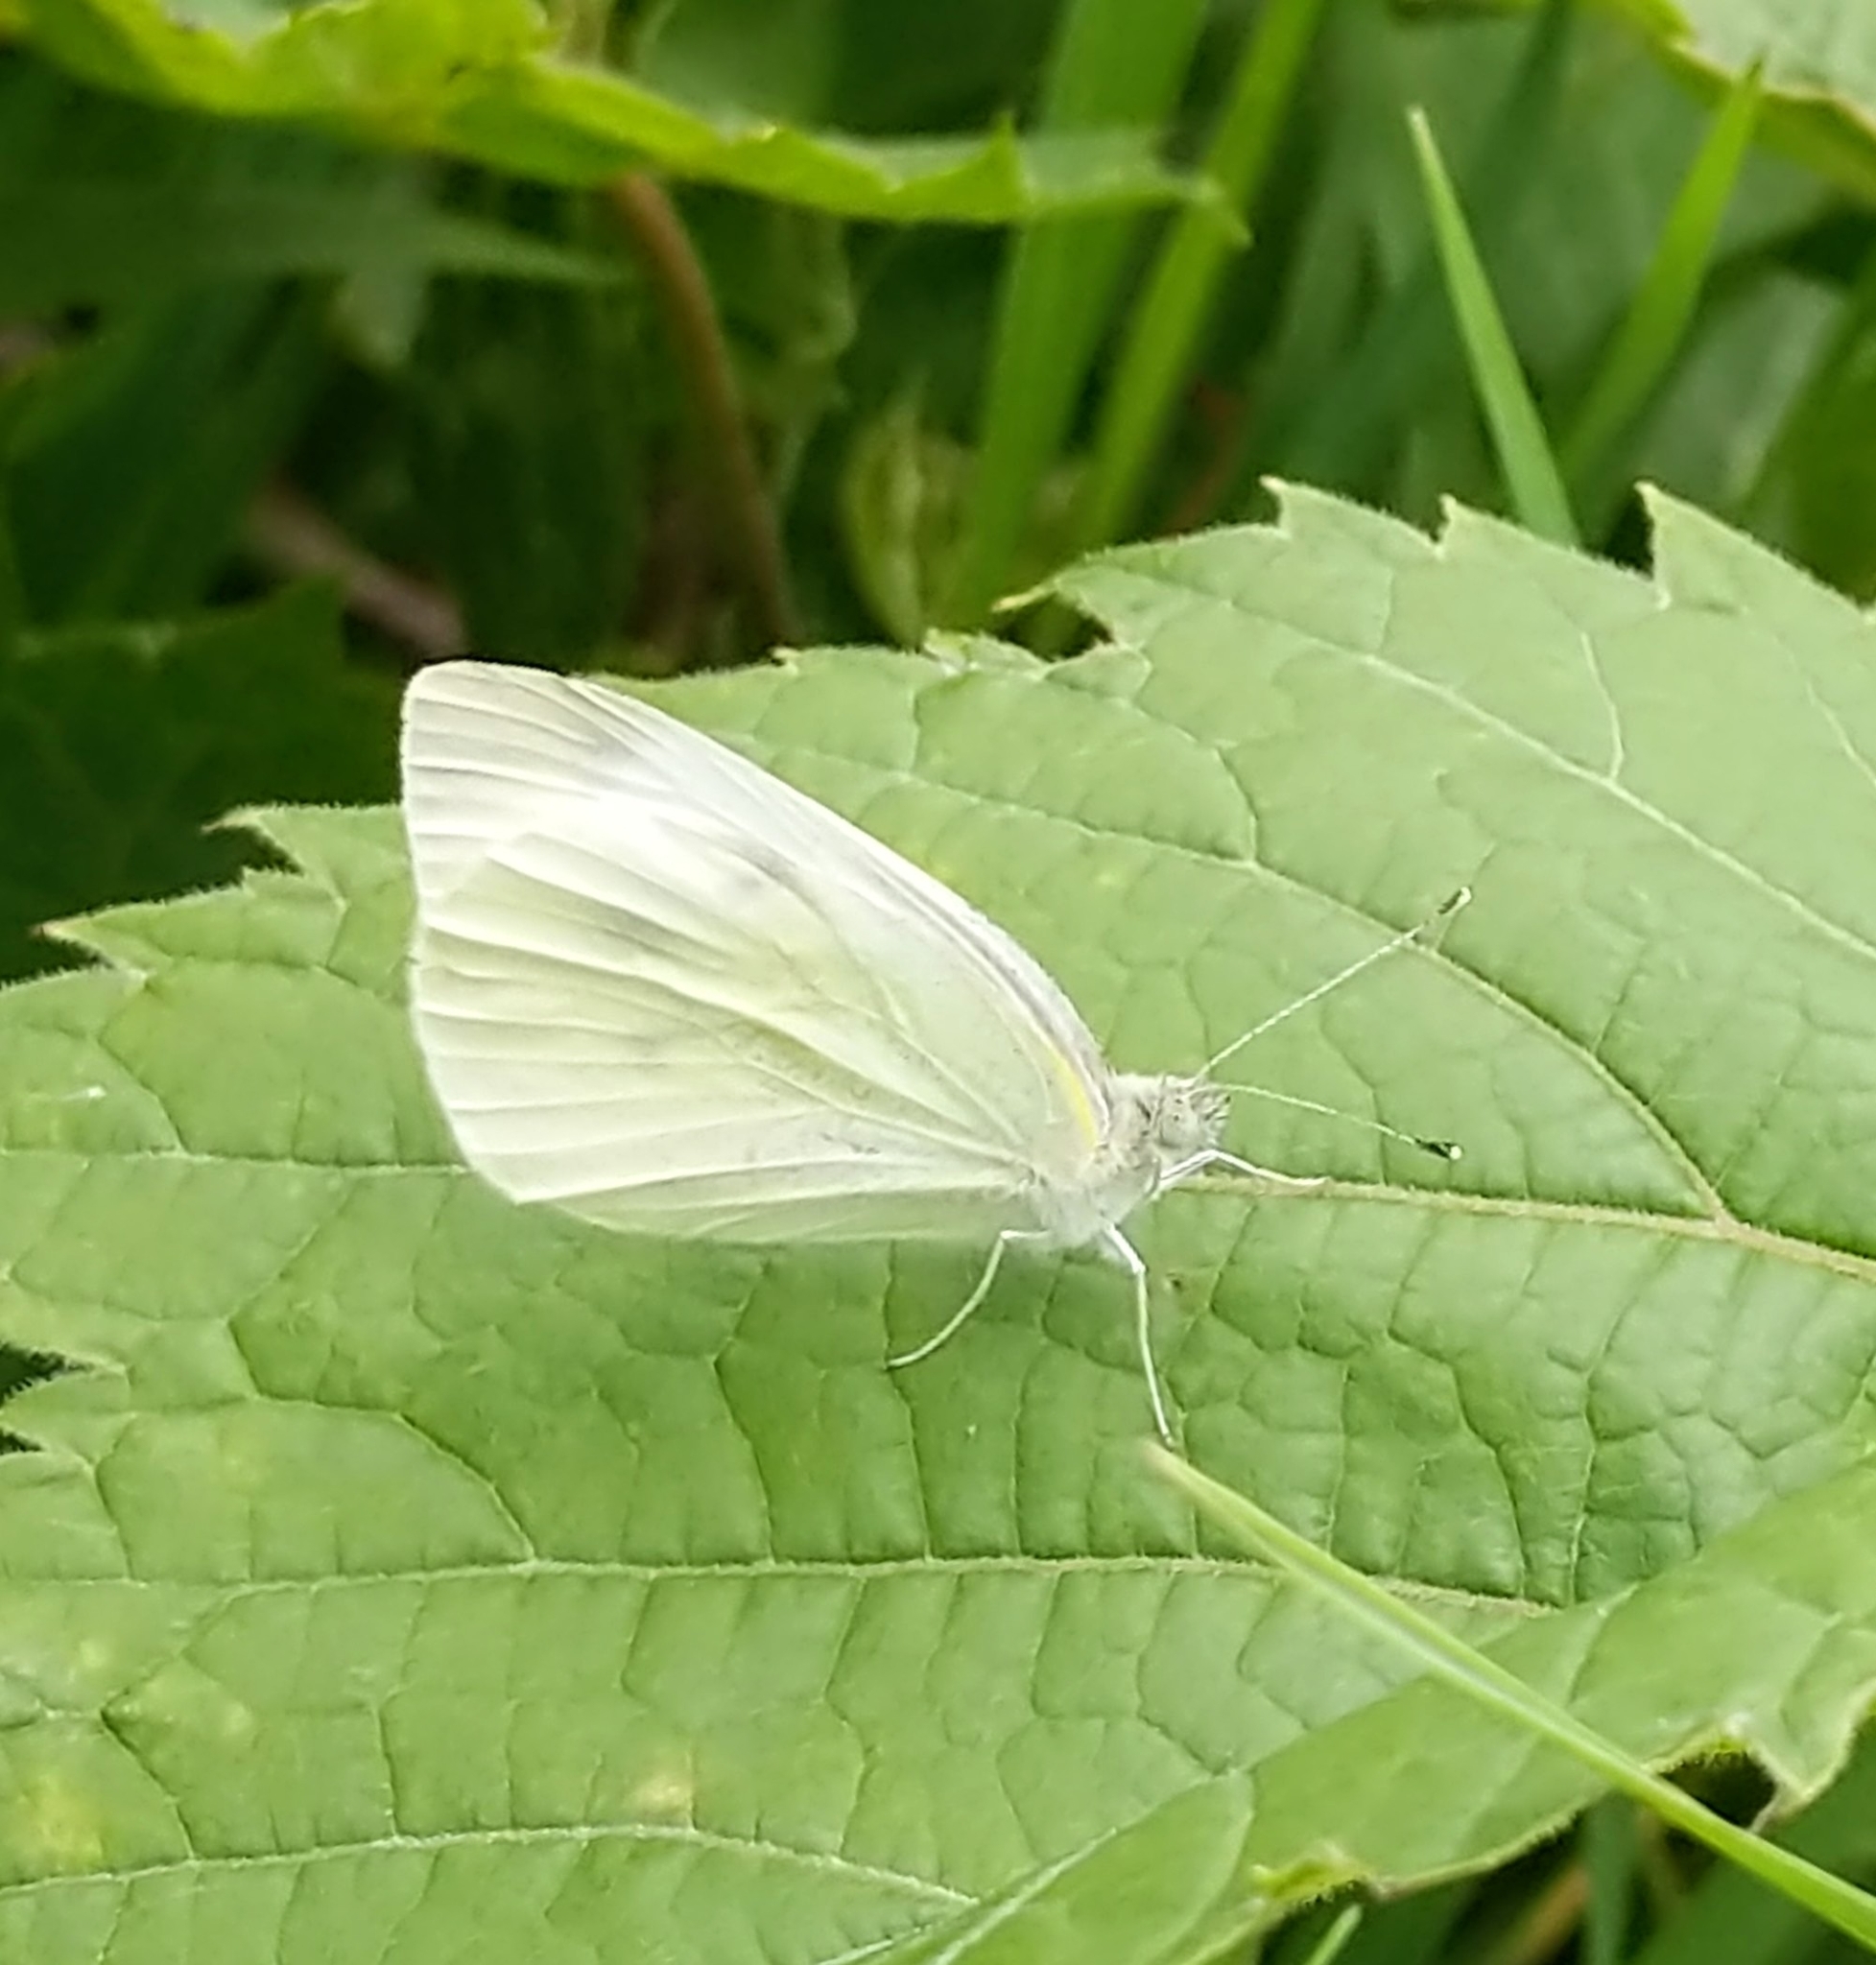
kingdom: Animalia
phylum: Arthropoda
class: Insecta
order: Lepidoptera
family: Pieridae
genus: Pieris
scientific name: Pieris rapae
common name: Small white
